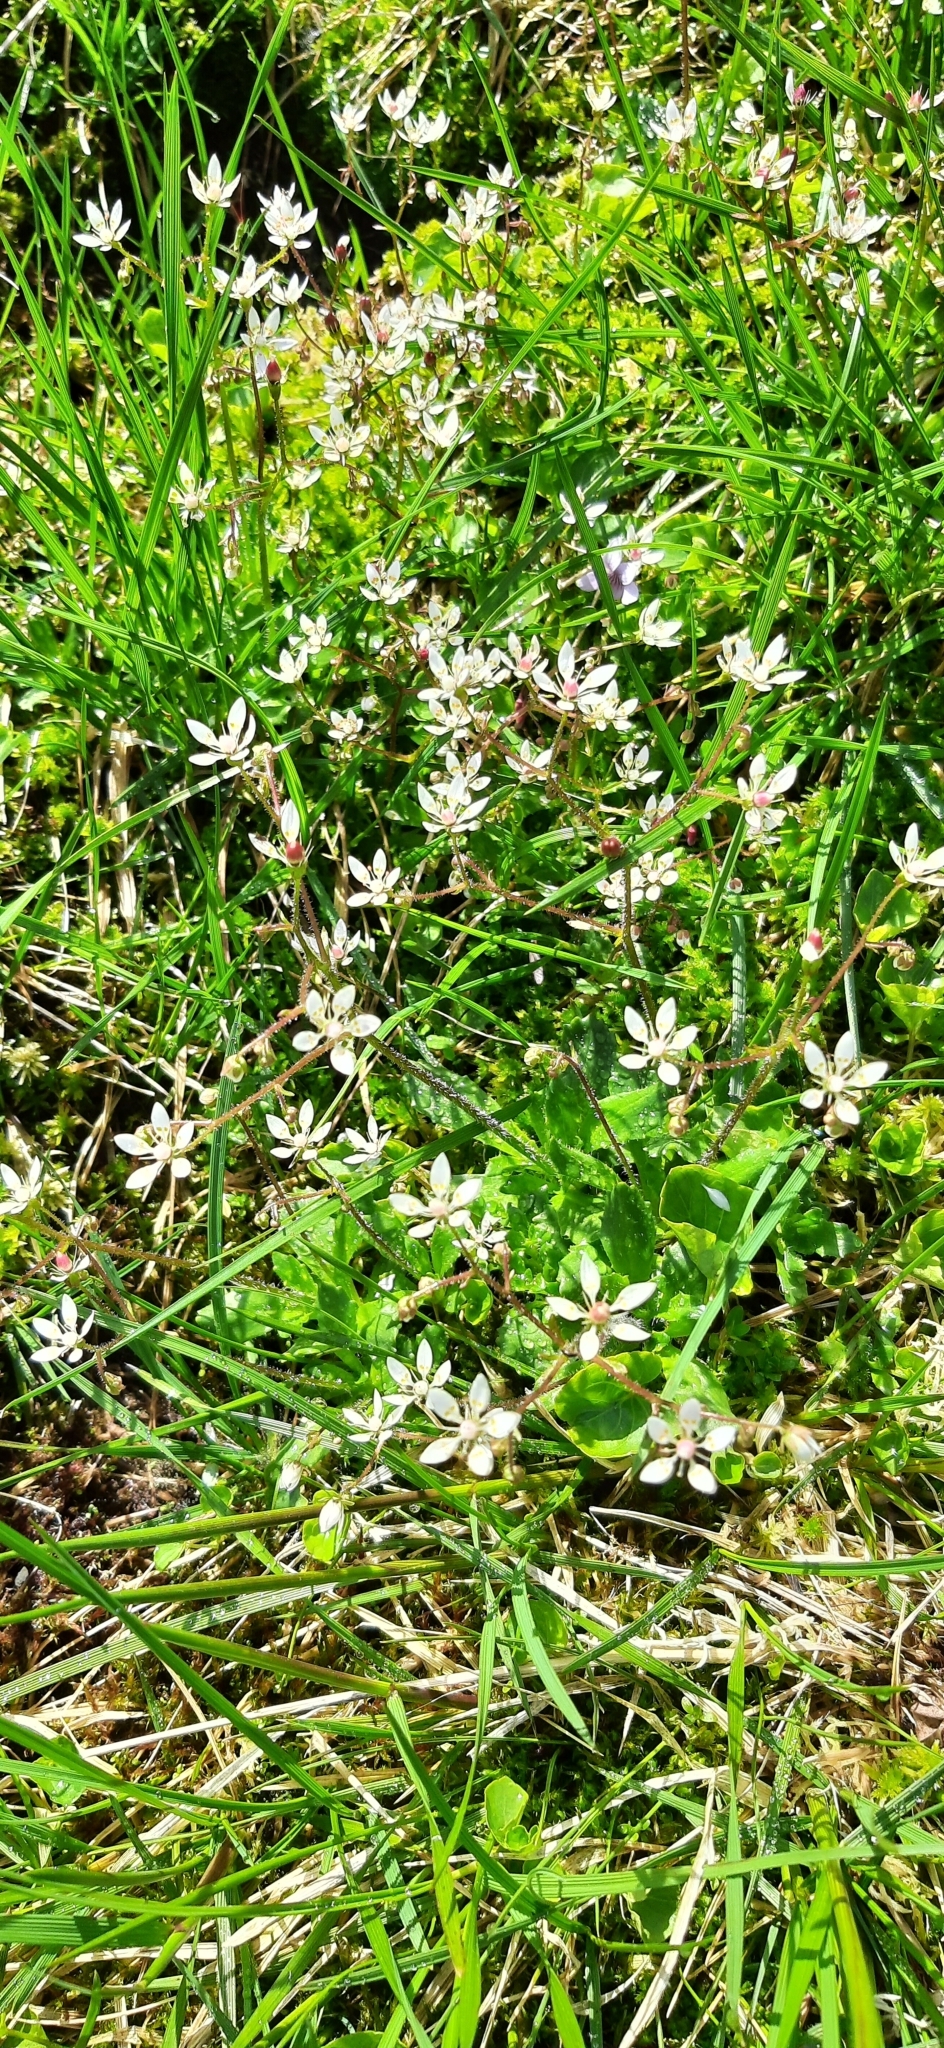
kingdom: Plantae
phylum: Tracheophyta
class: Magnoliopsida
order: Saxifragales
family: Saxifragaceae
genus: Micranthes
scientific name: Micranthes stellaris
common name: Starry saxifrage
